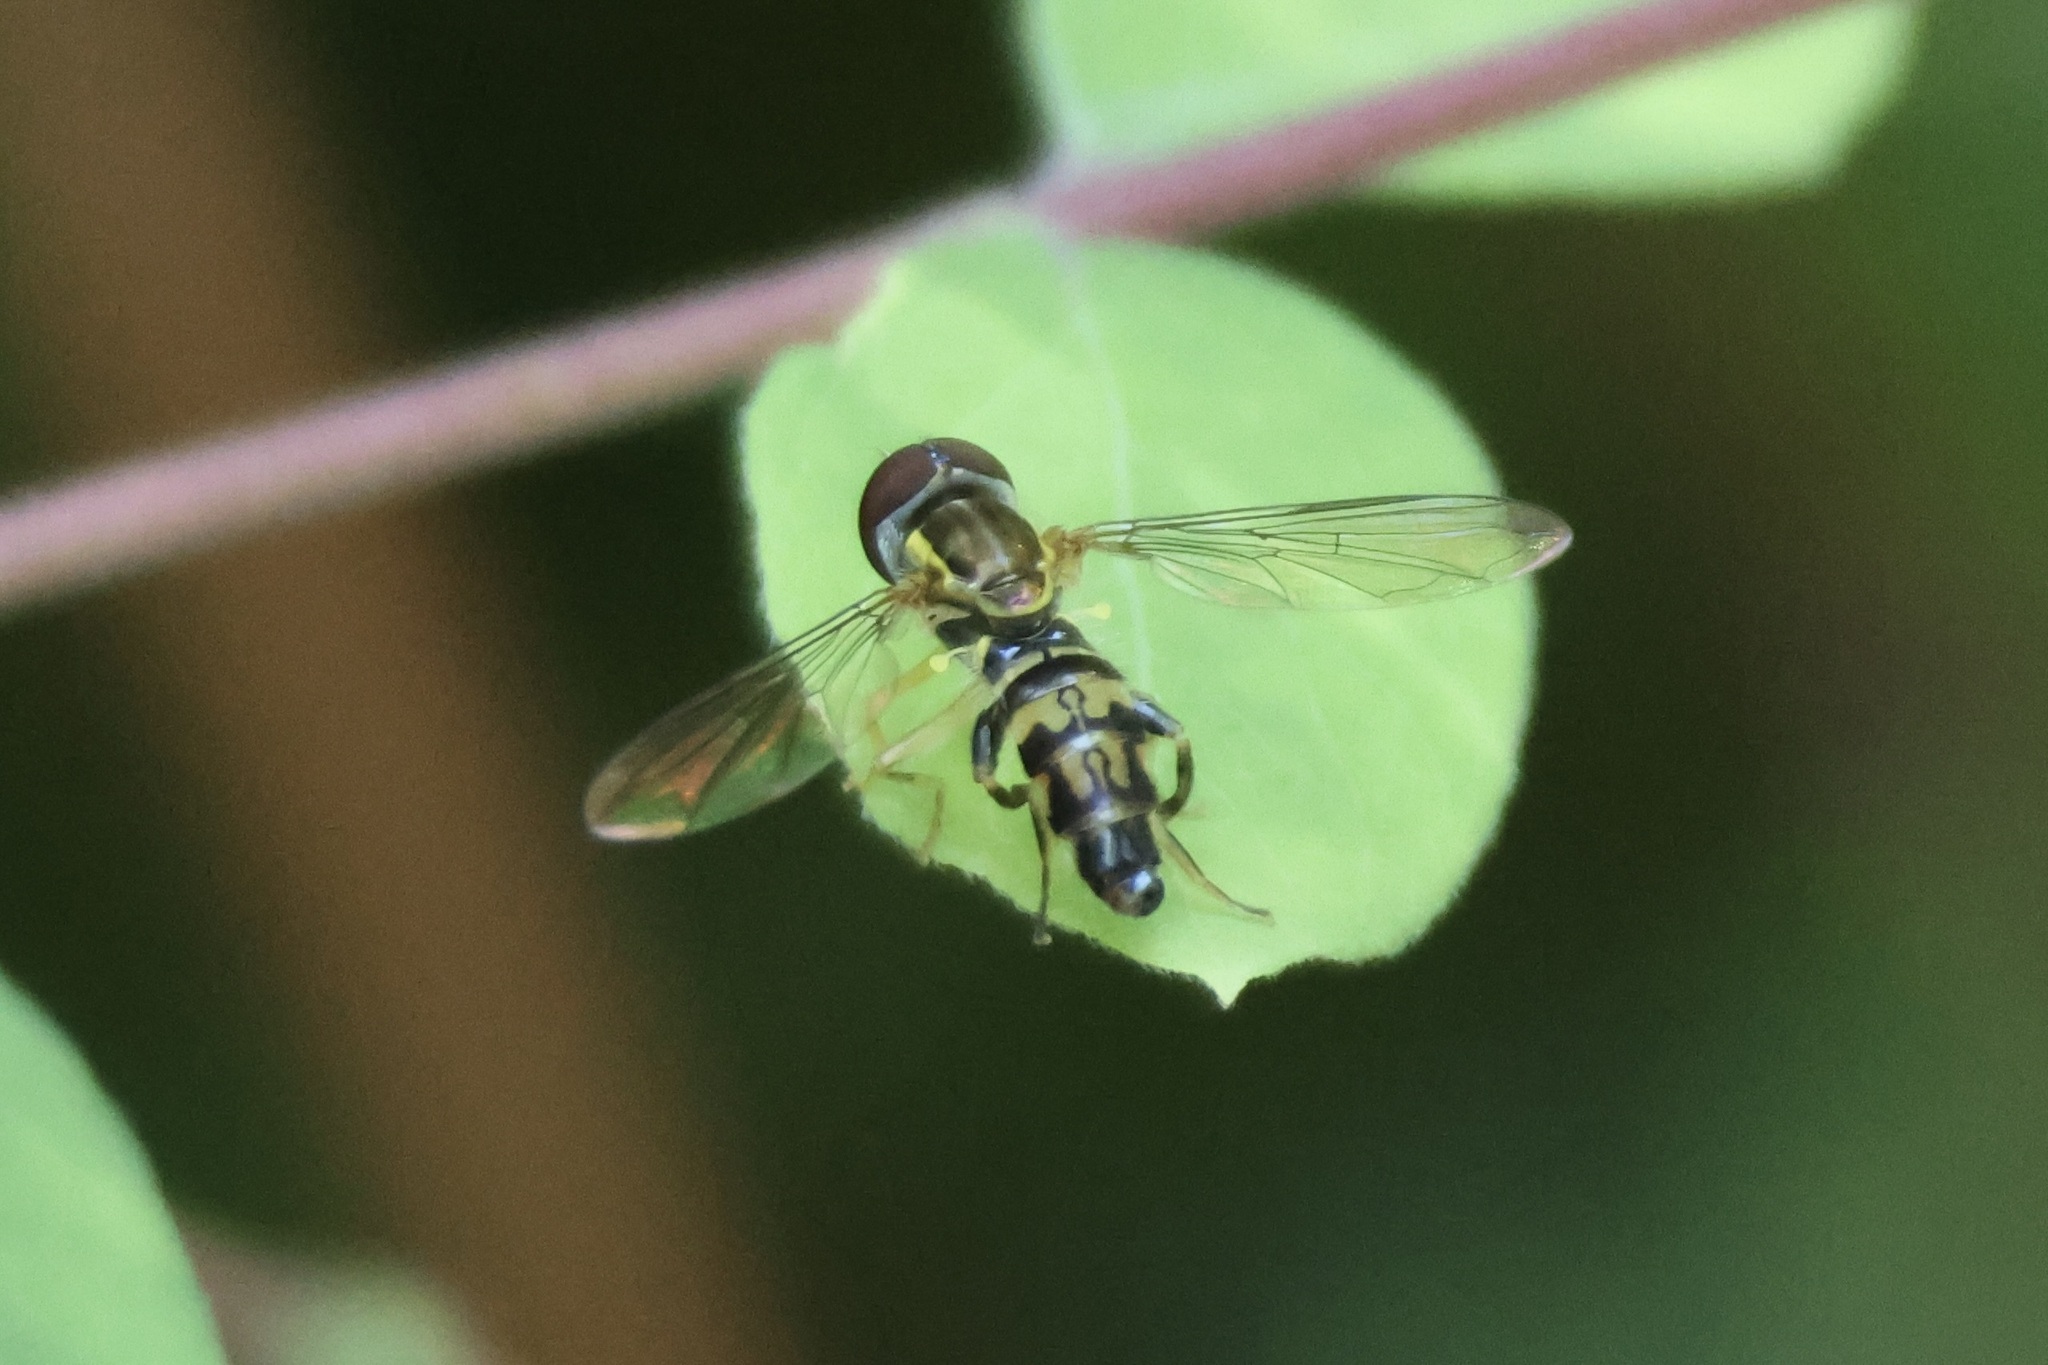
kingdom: Animalia
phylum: Arthropoda
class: Insecta
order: Diptera
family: Syrphidae
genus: Toxomerus
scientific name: Toxomerus geminatus
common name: Eastern calligrapher
